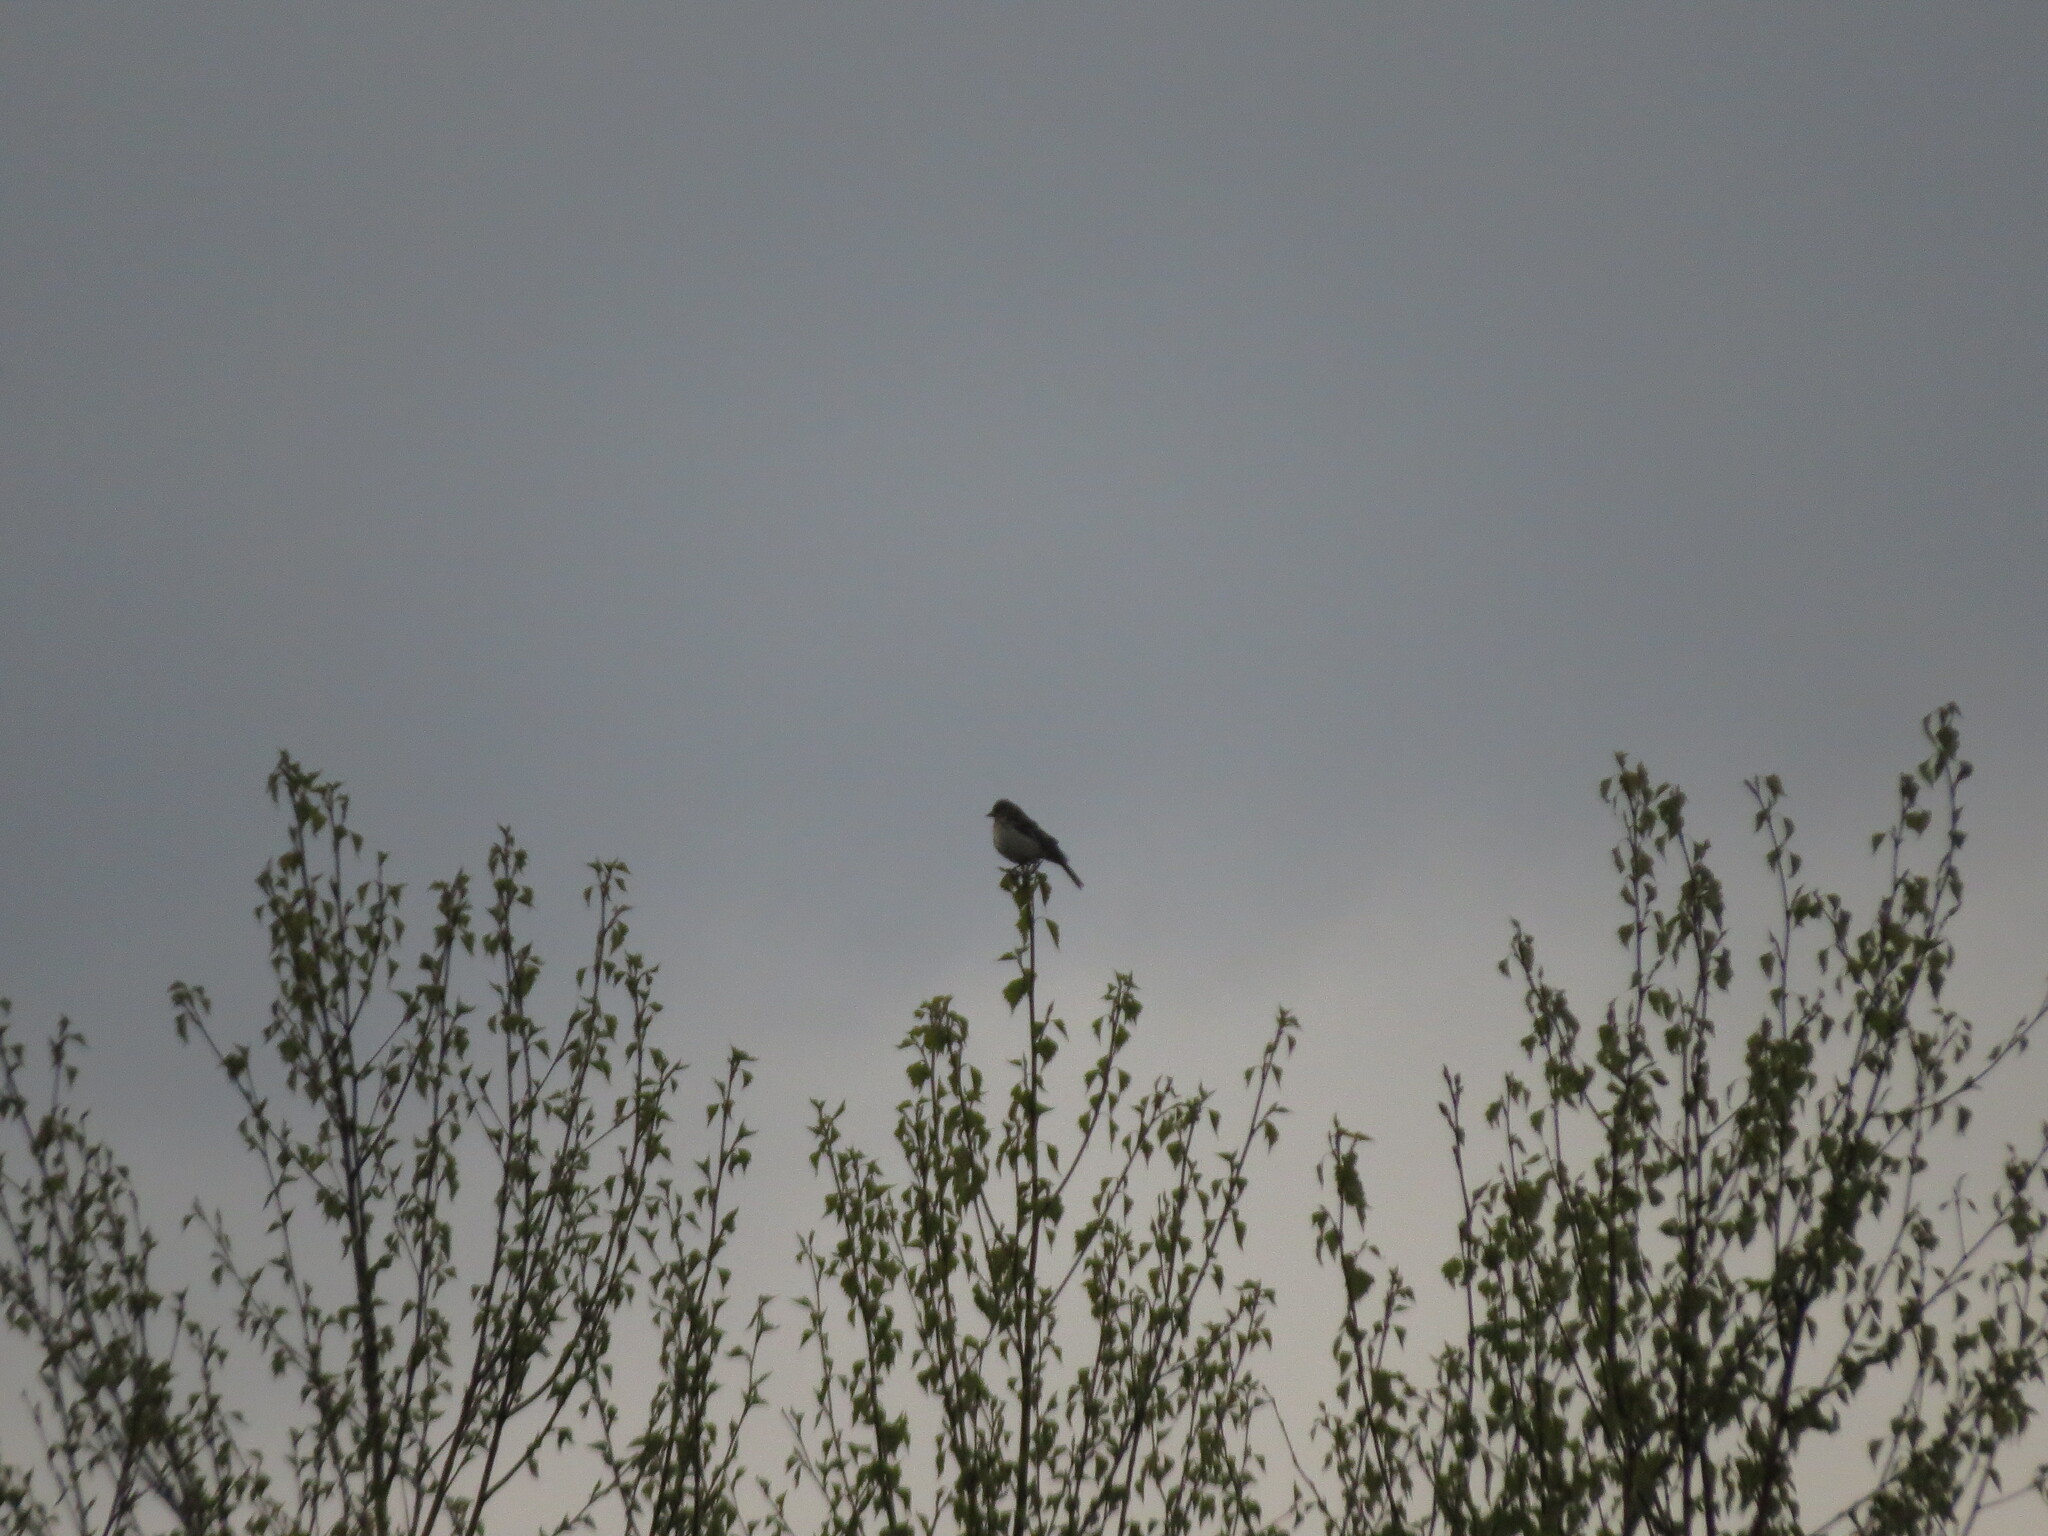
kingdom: Animalia
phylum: Chordata
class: Aves
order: Passeriformes
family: Fringillidae
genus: Linaria
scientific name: Linaria cannabina
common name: Common linnet
